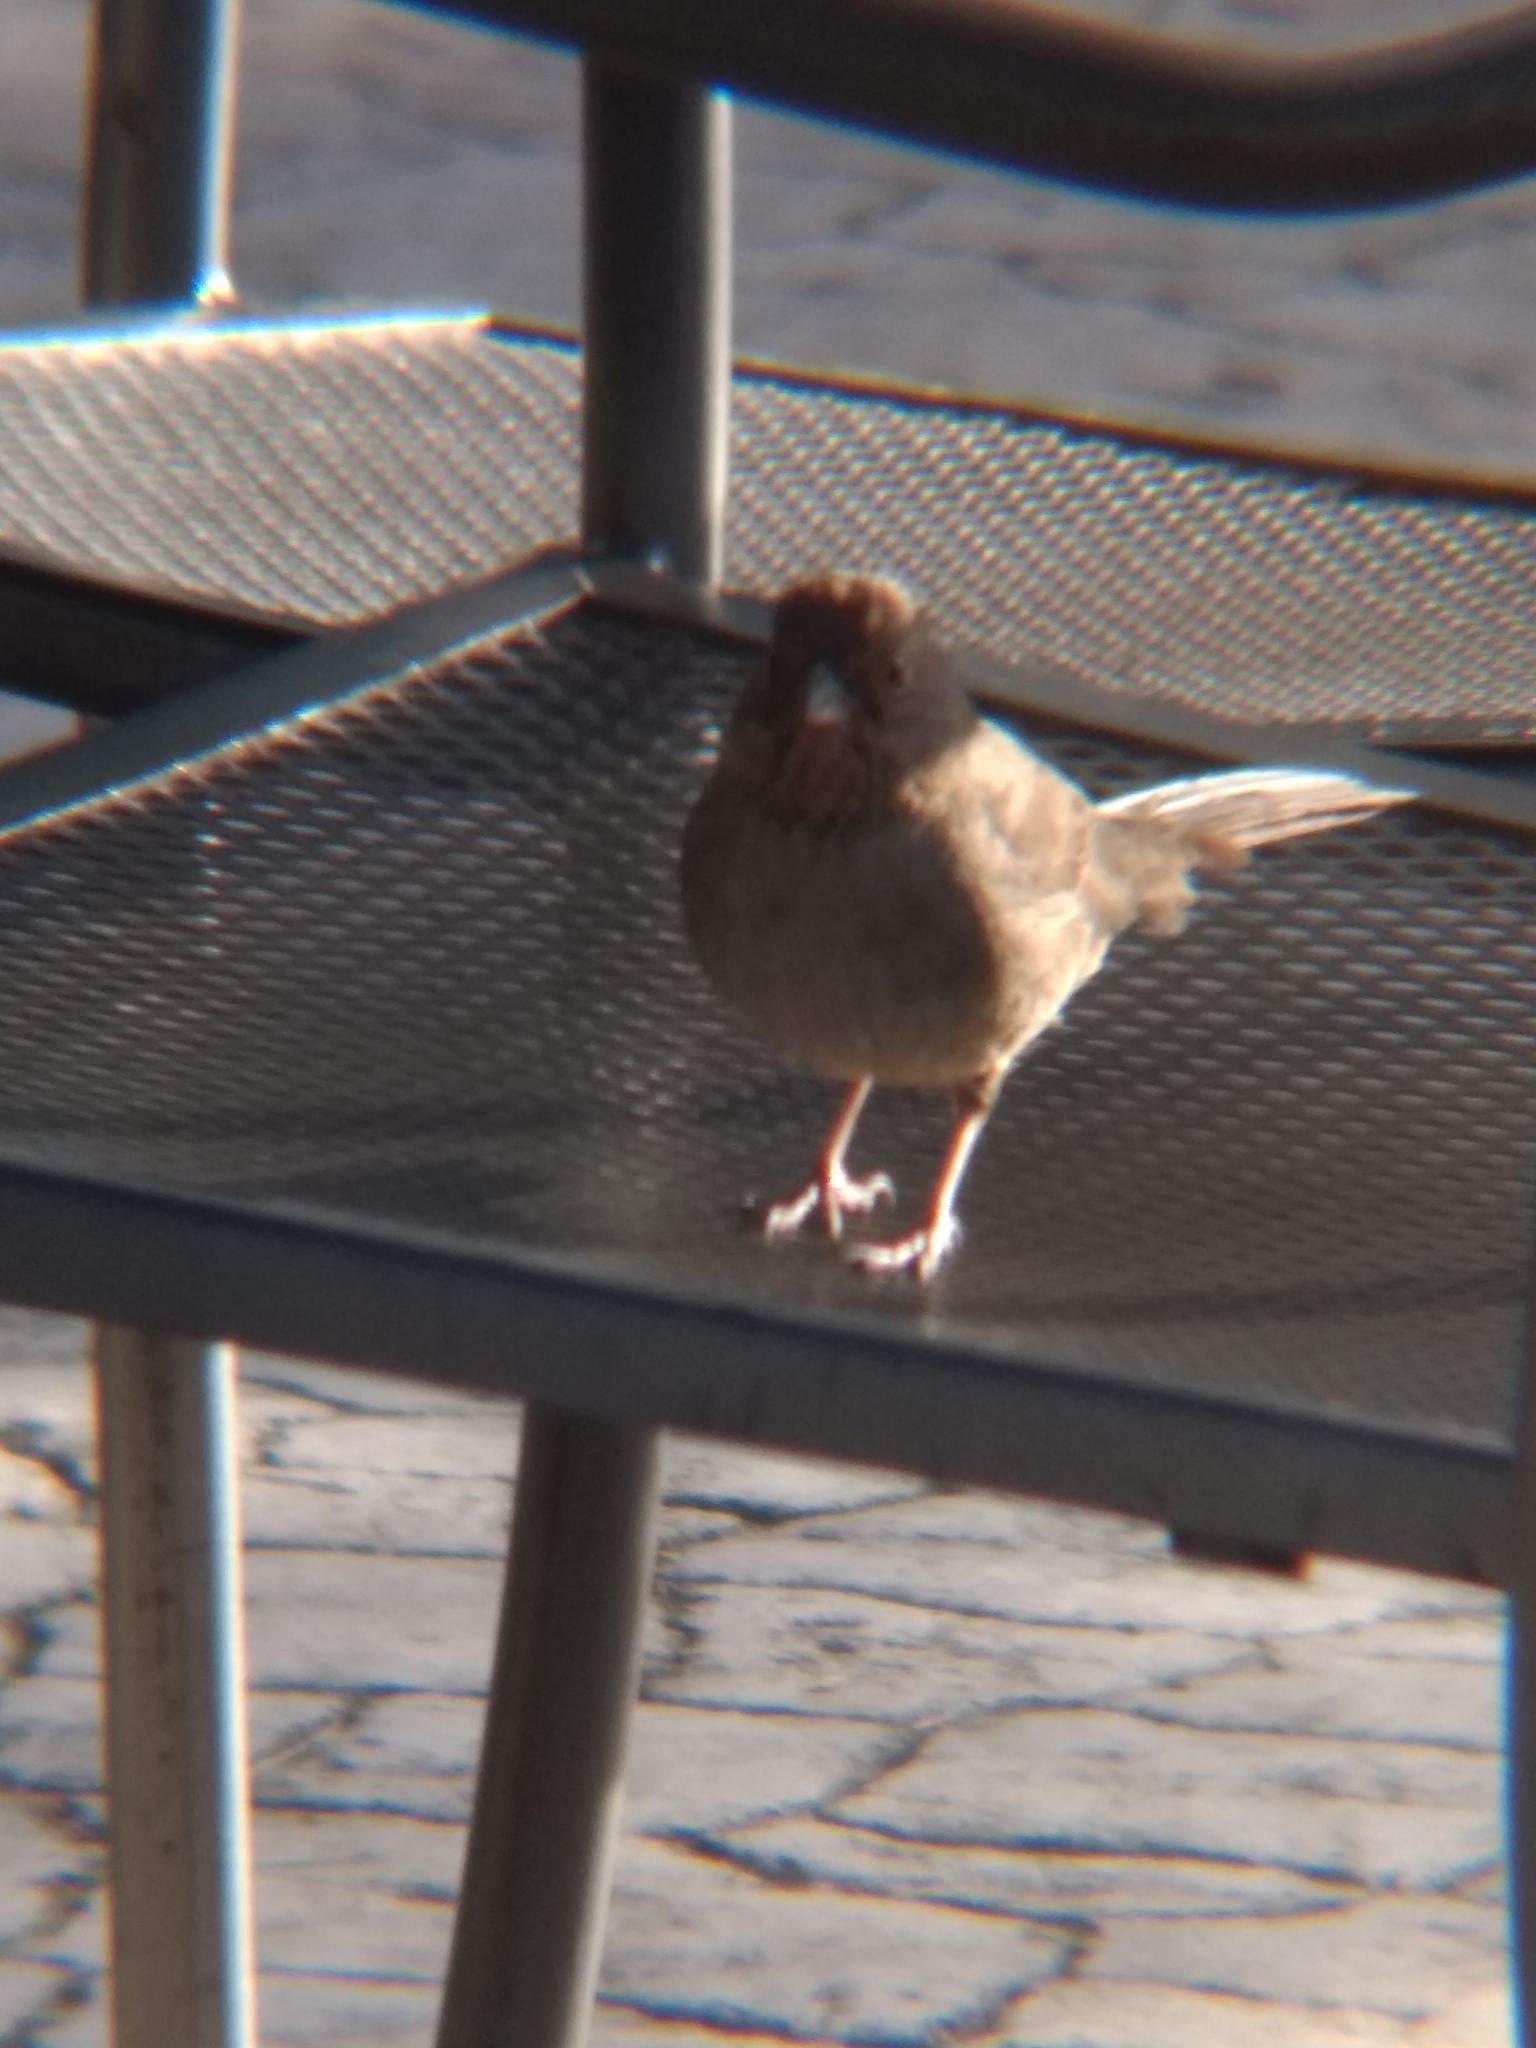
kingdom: Animalia
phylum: Chordata
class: Aves
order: Passeriformes
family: Passerellidae
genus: Melozone
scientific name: Melozone crissalis
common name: California towhee
